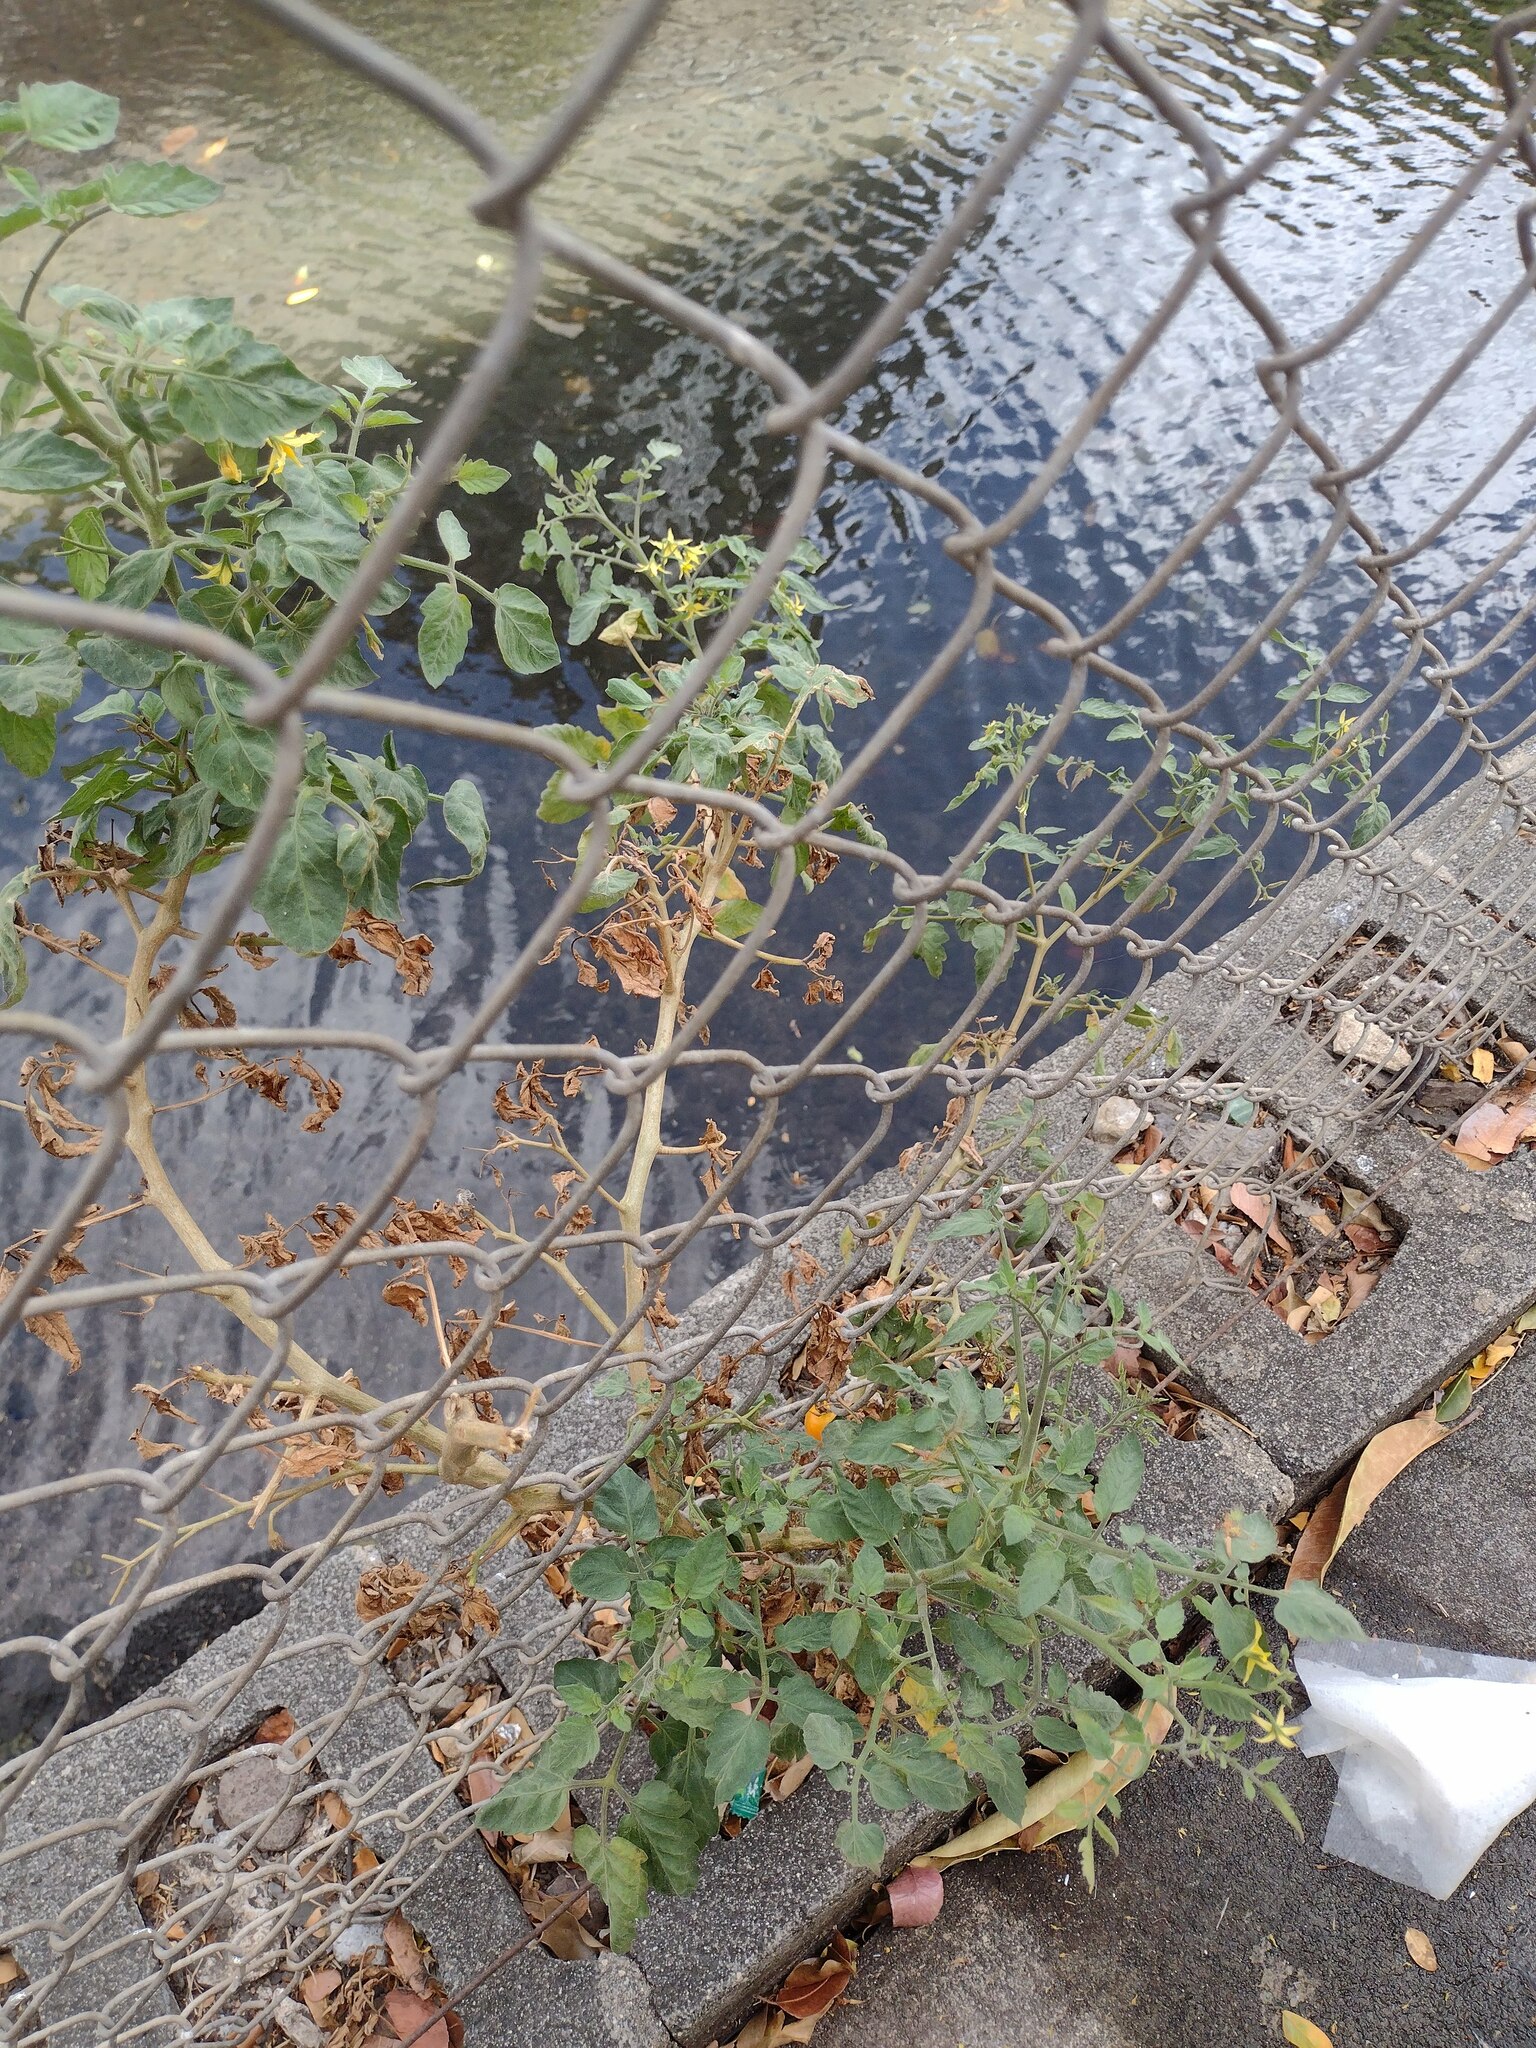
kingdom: Plantae
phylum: Tracheophyta
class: Magnoliopsida
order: Solanales
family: Solanaceae
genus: Solanum
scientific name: Solanum lycopersicum
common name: Garden tomato
